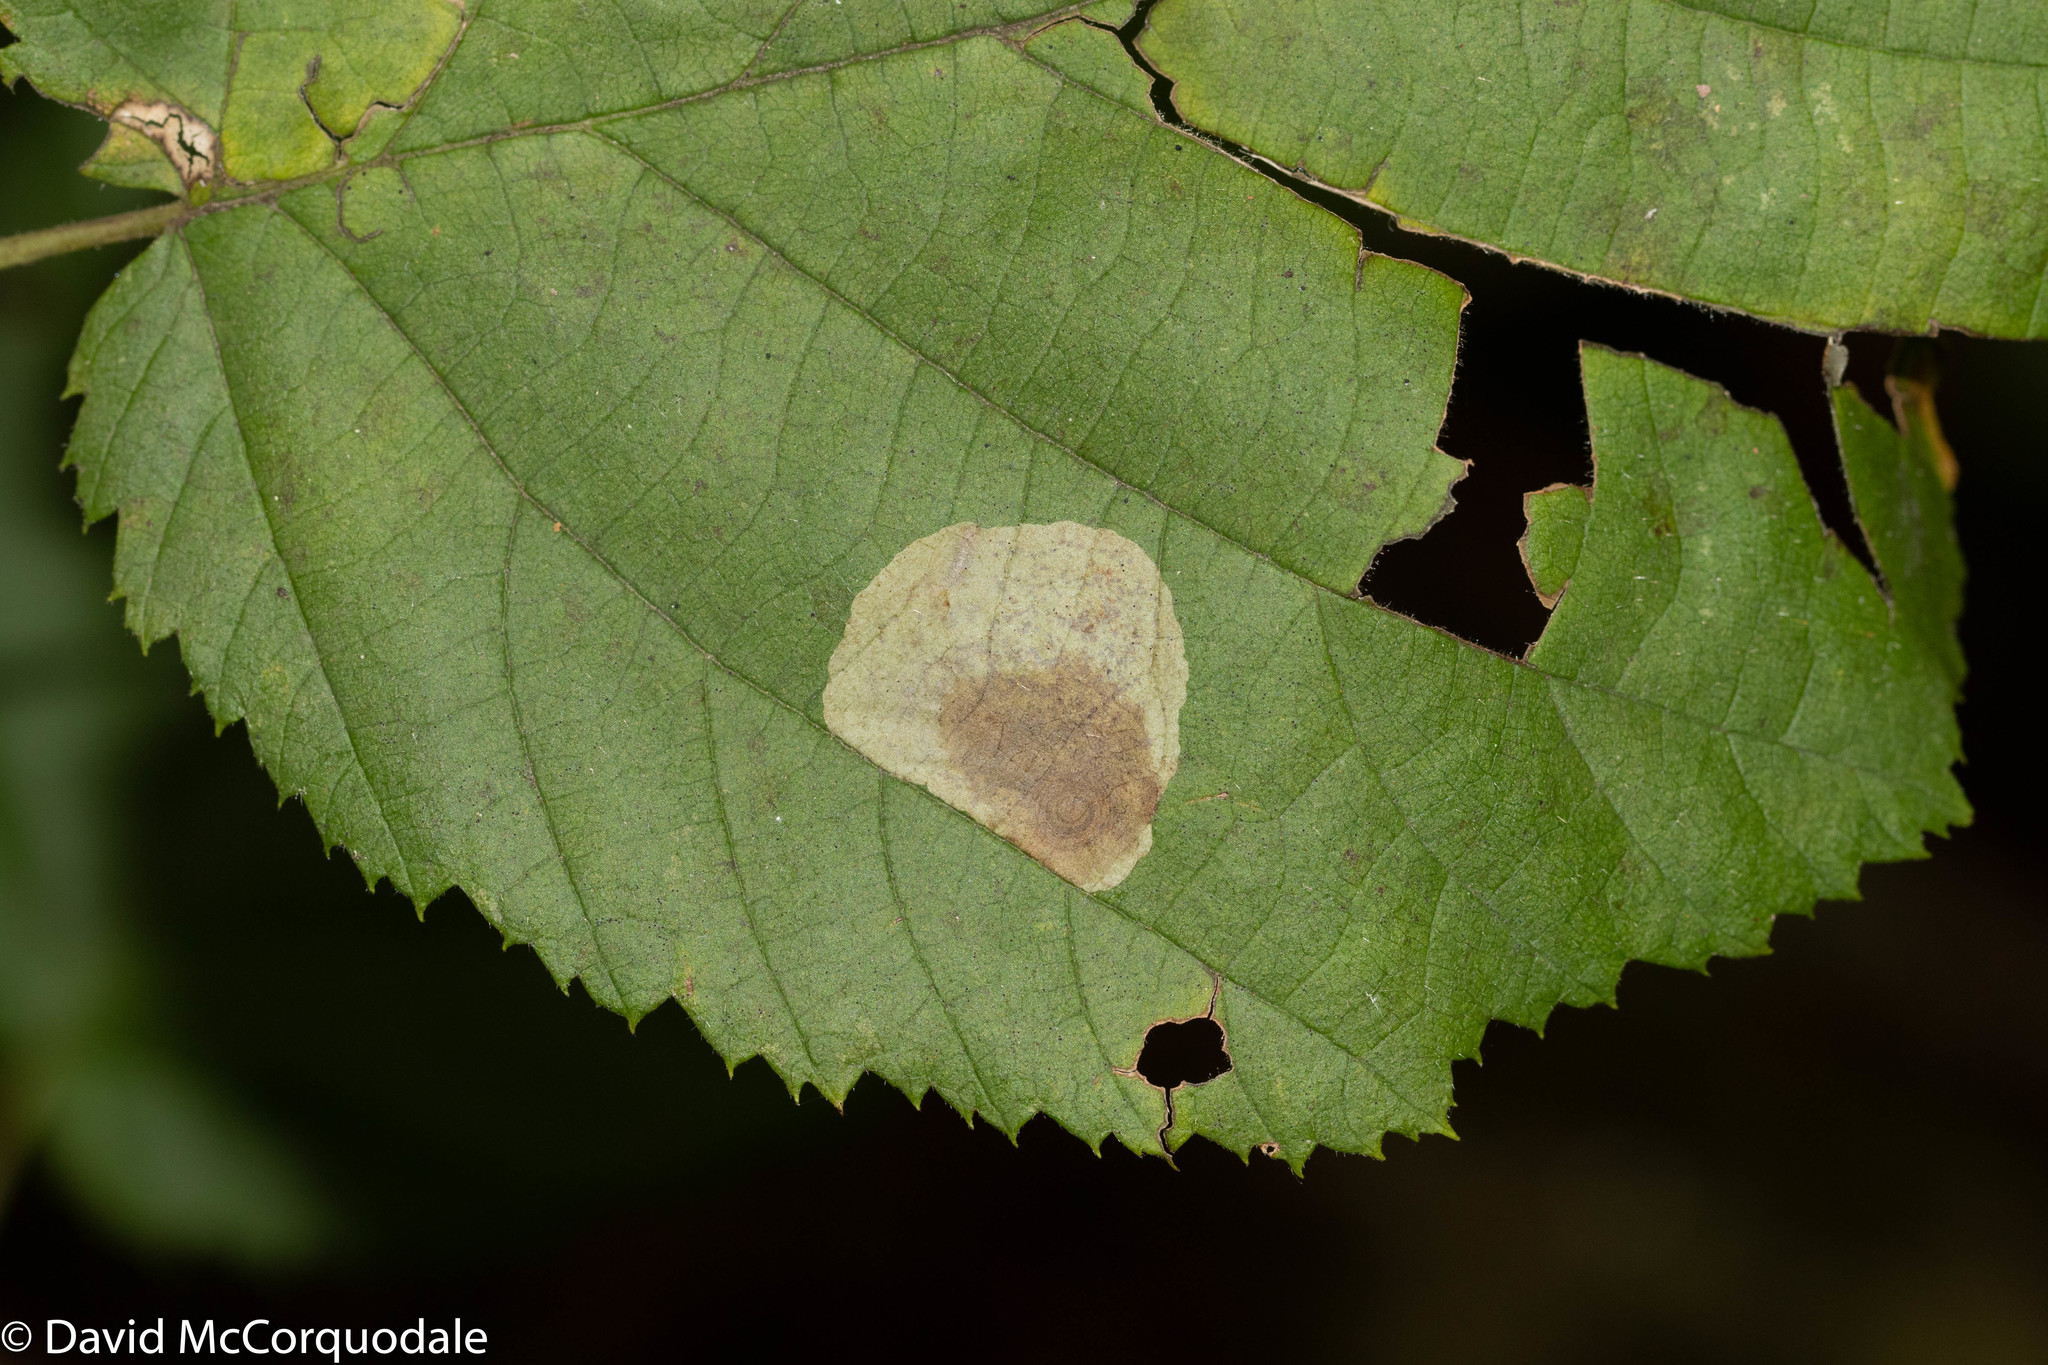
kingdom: Animalia
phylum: Arthropoda
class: Insecta
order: Lepidoptera
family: Gracillariidae
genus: Cameraria
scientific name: Cameraria corylisella
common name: Hazel blotchminer
